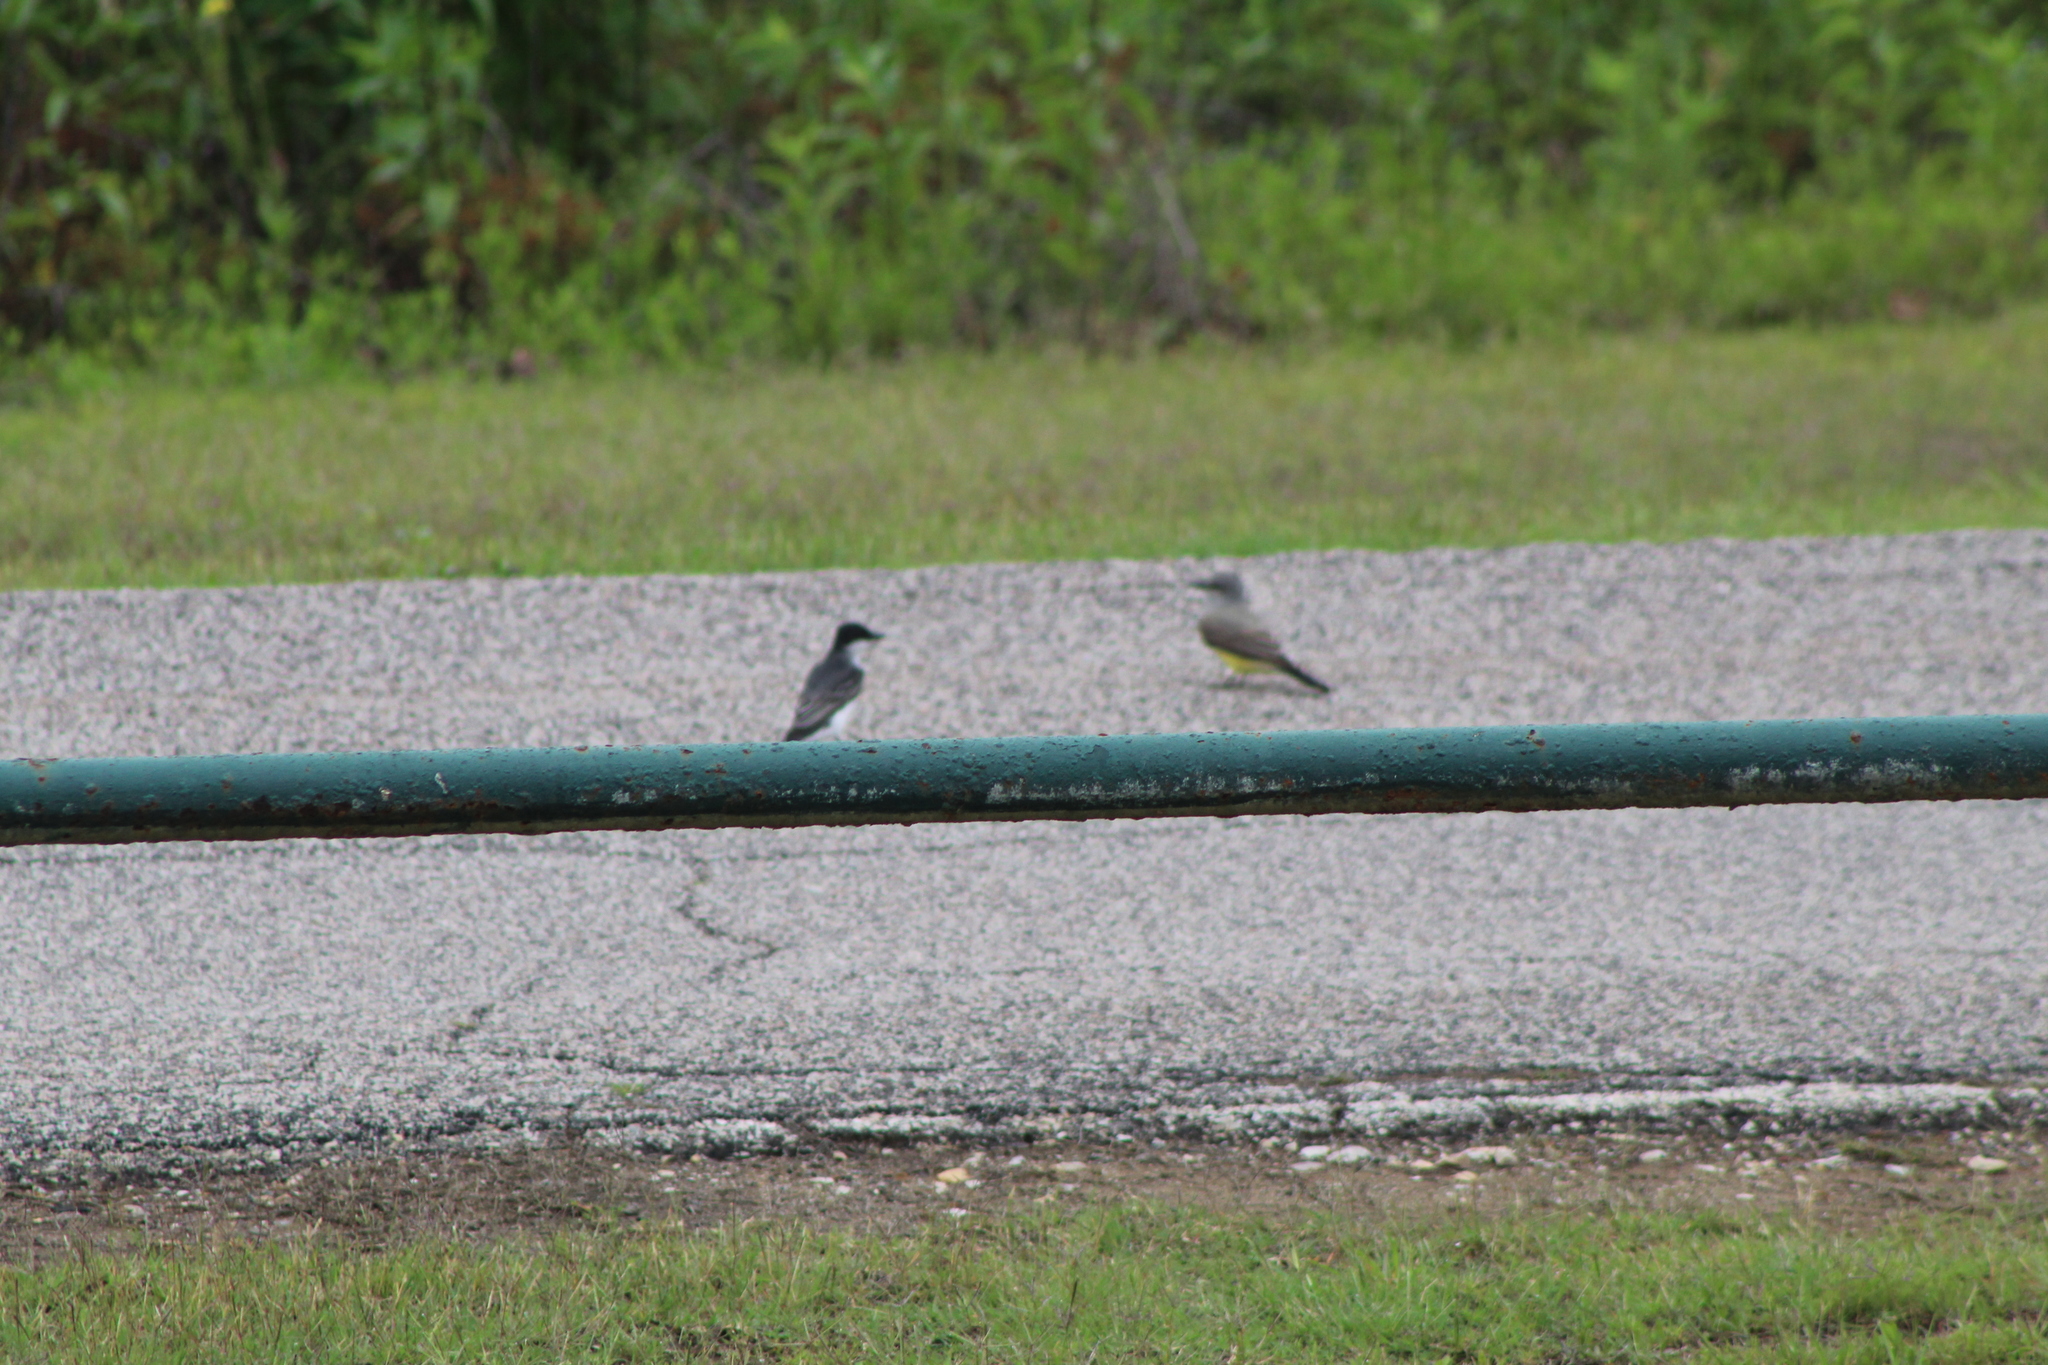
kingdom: Animalia
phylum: Chordata
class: Aves
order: Passeriformes
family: Tyrannidae
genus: Tyrannus
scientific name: Tyrannus tyrannus
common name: Eastern kingbird
